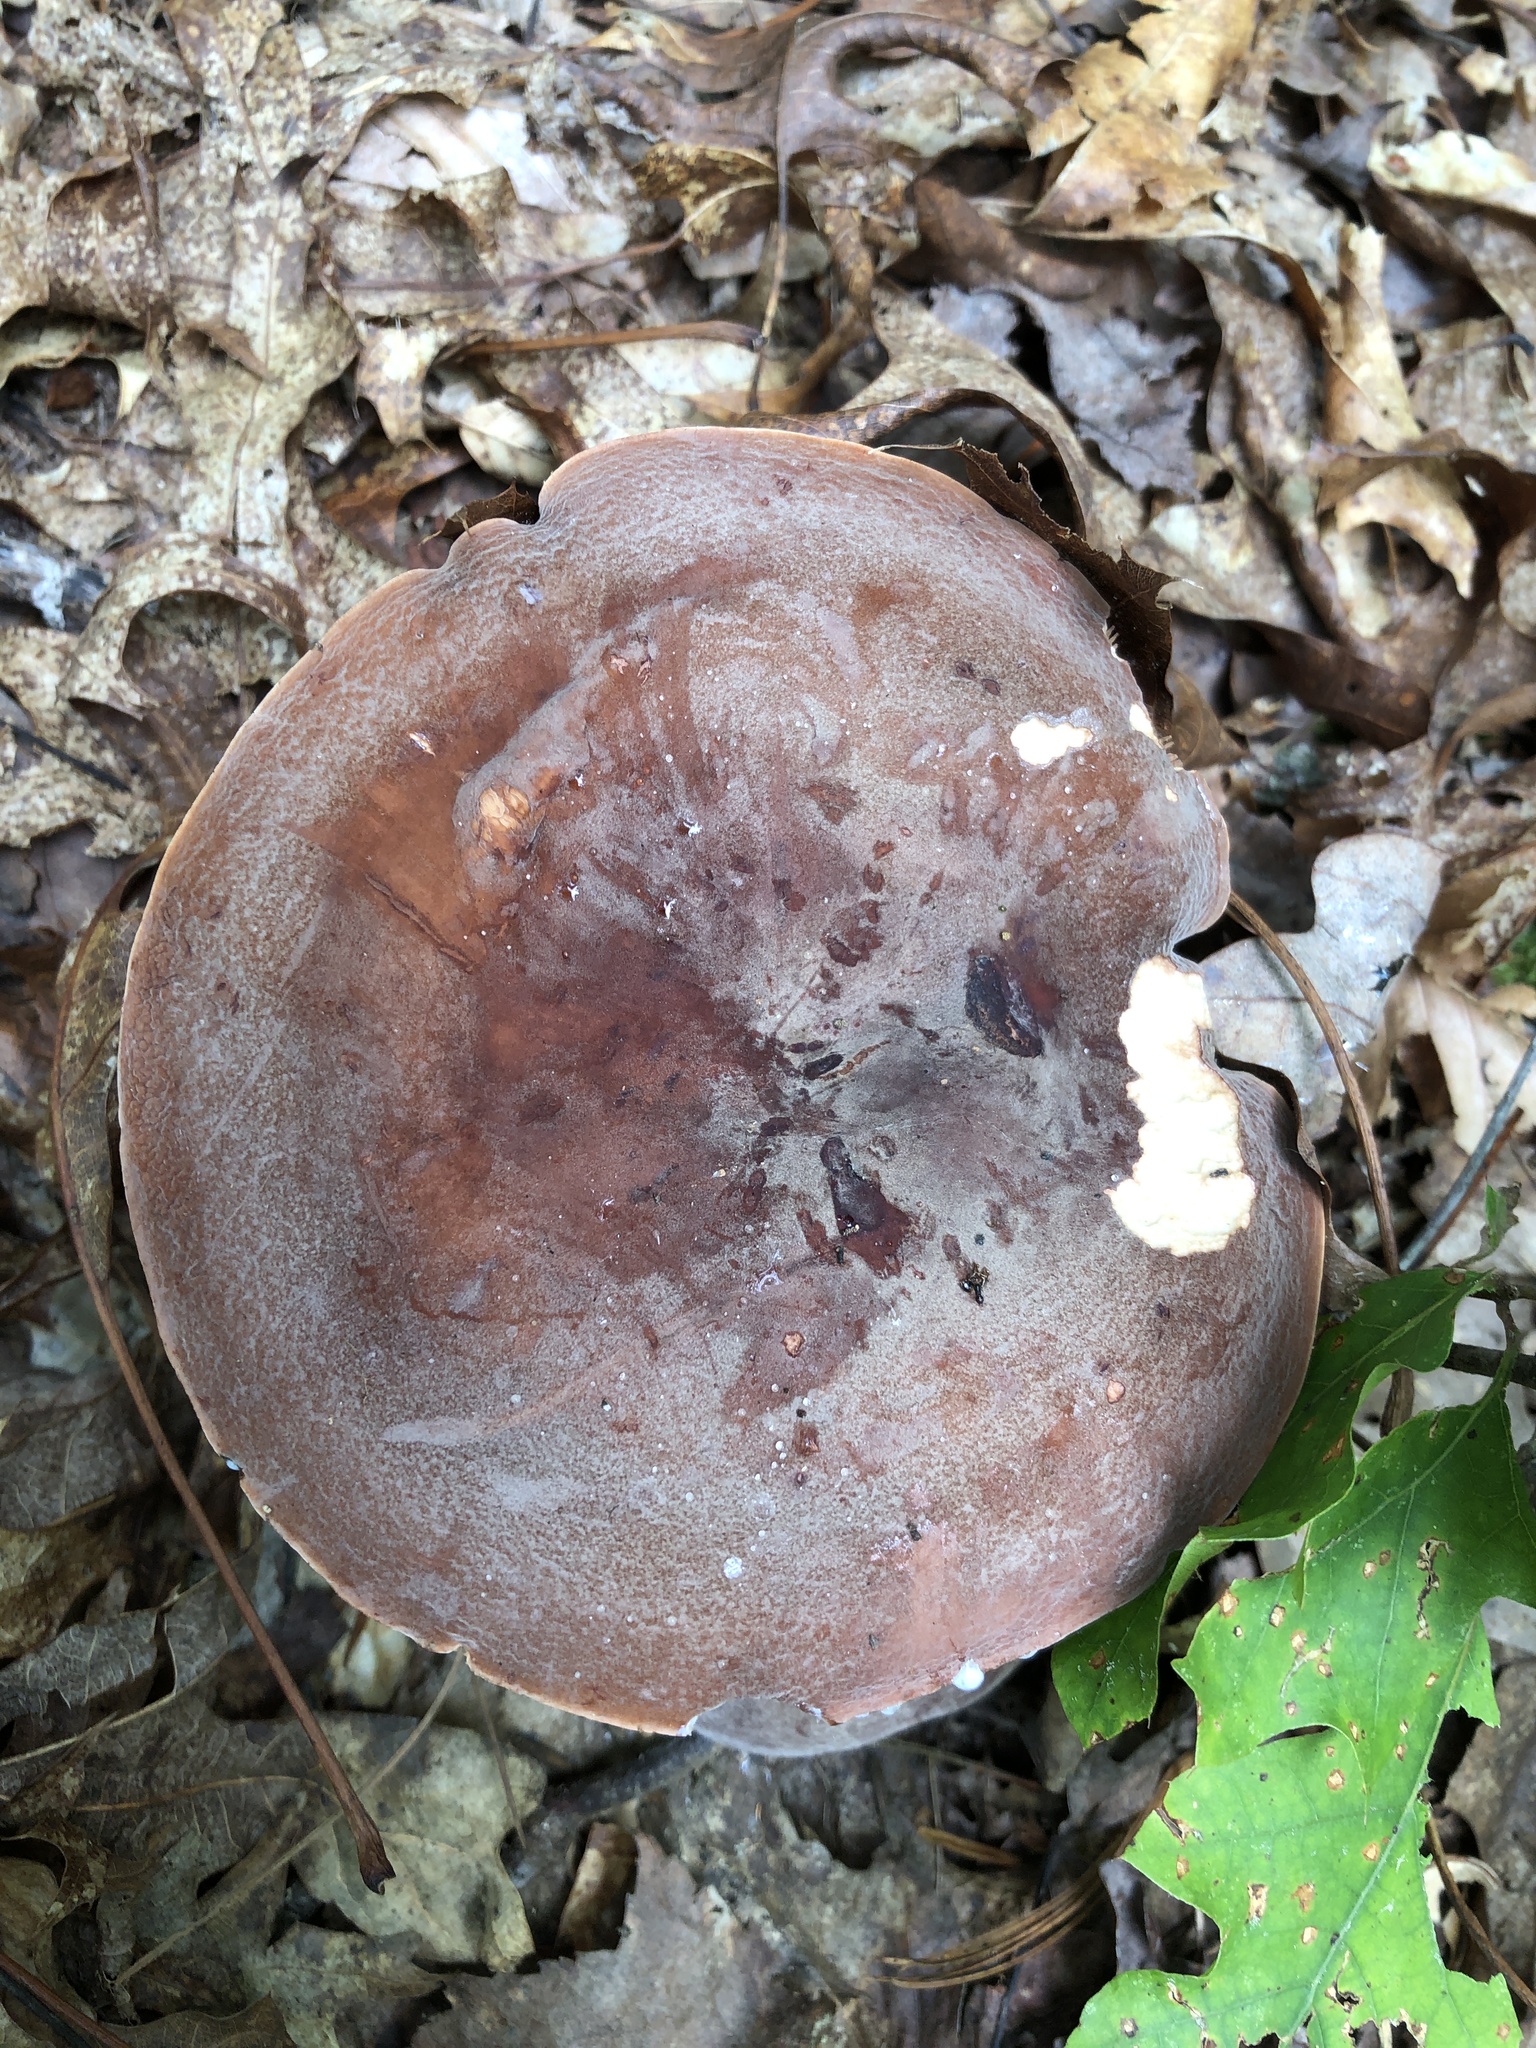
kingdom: Fungi
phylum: Basidiomycota
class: Agaricomycetes
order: Russulales
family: Russulaceae
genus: Lactarius
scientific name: Lactarius corrugis
